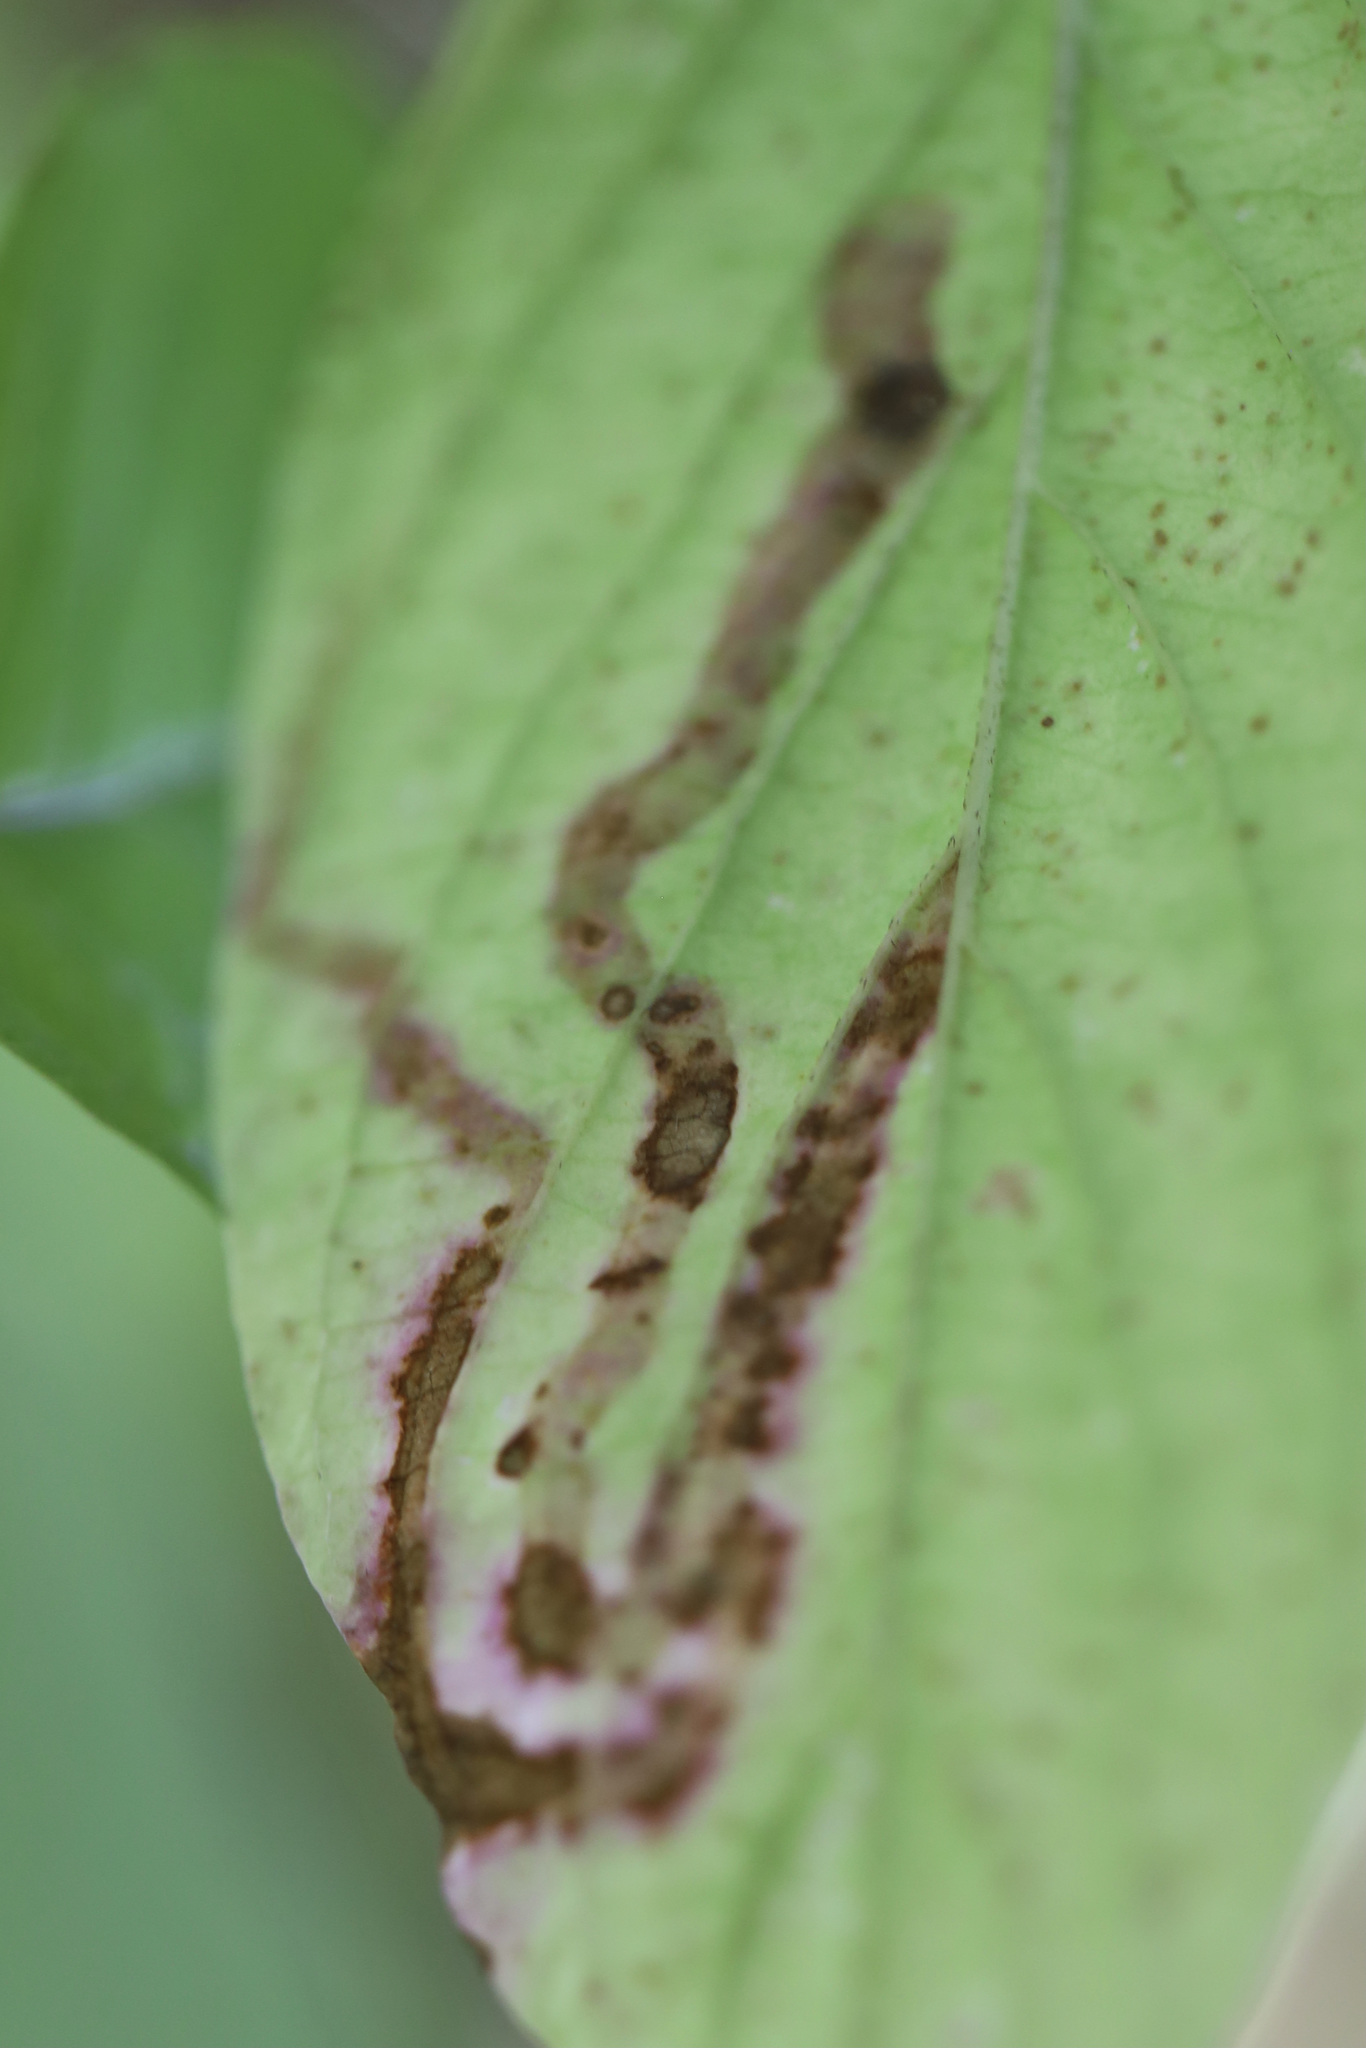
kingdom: Animalia
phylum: Arthropoda
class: Insecta
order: Diptera
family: Agromyzidae
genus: Phytomyza
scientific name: Phytomyza agromyzina
